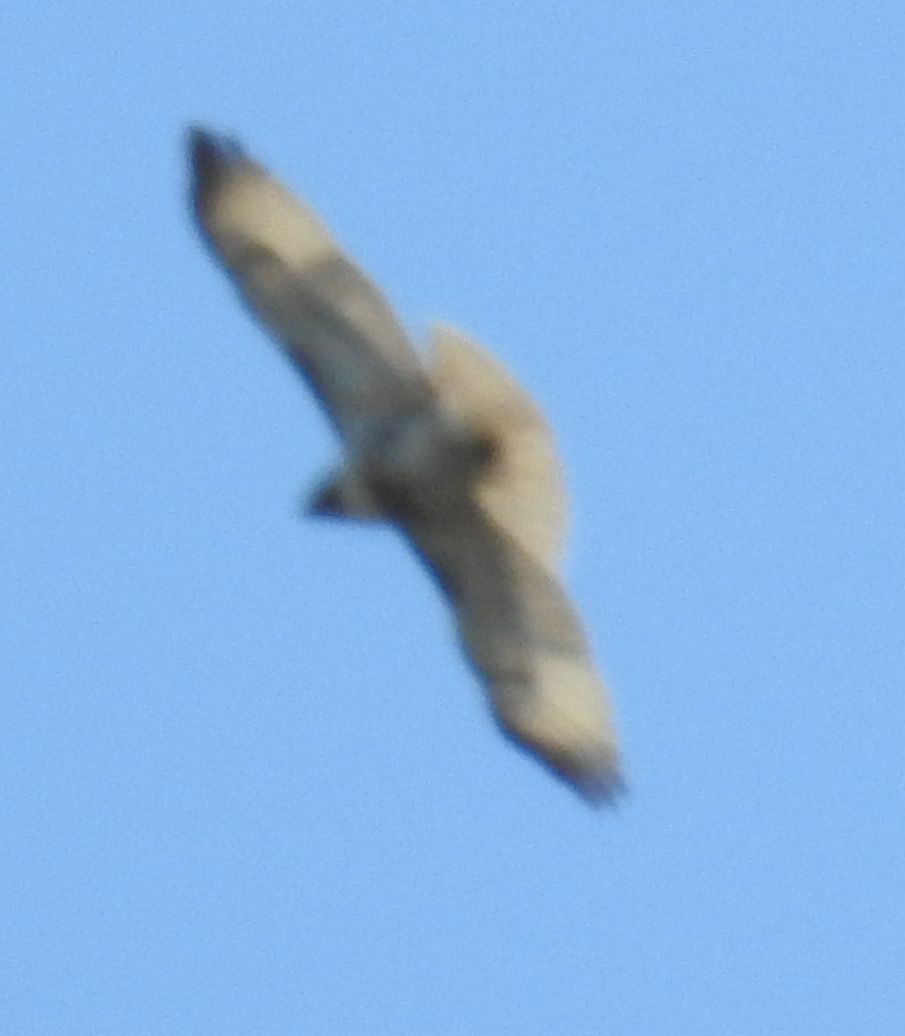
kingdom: Animalia
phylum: Chordata
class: Aves
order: Accipitriformes
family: Accipitridae
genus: Buteo
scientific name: Buteo jamaicensis
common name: Red-tailed hawk
